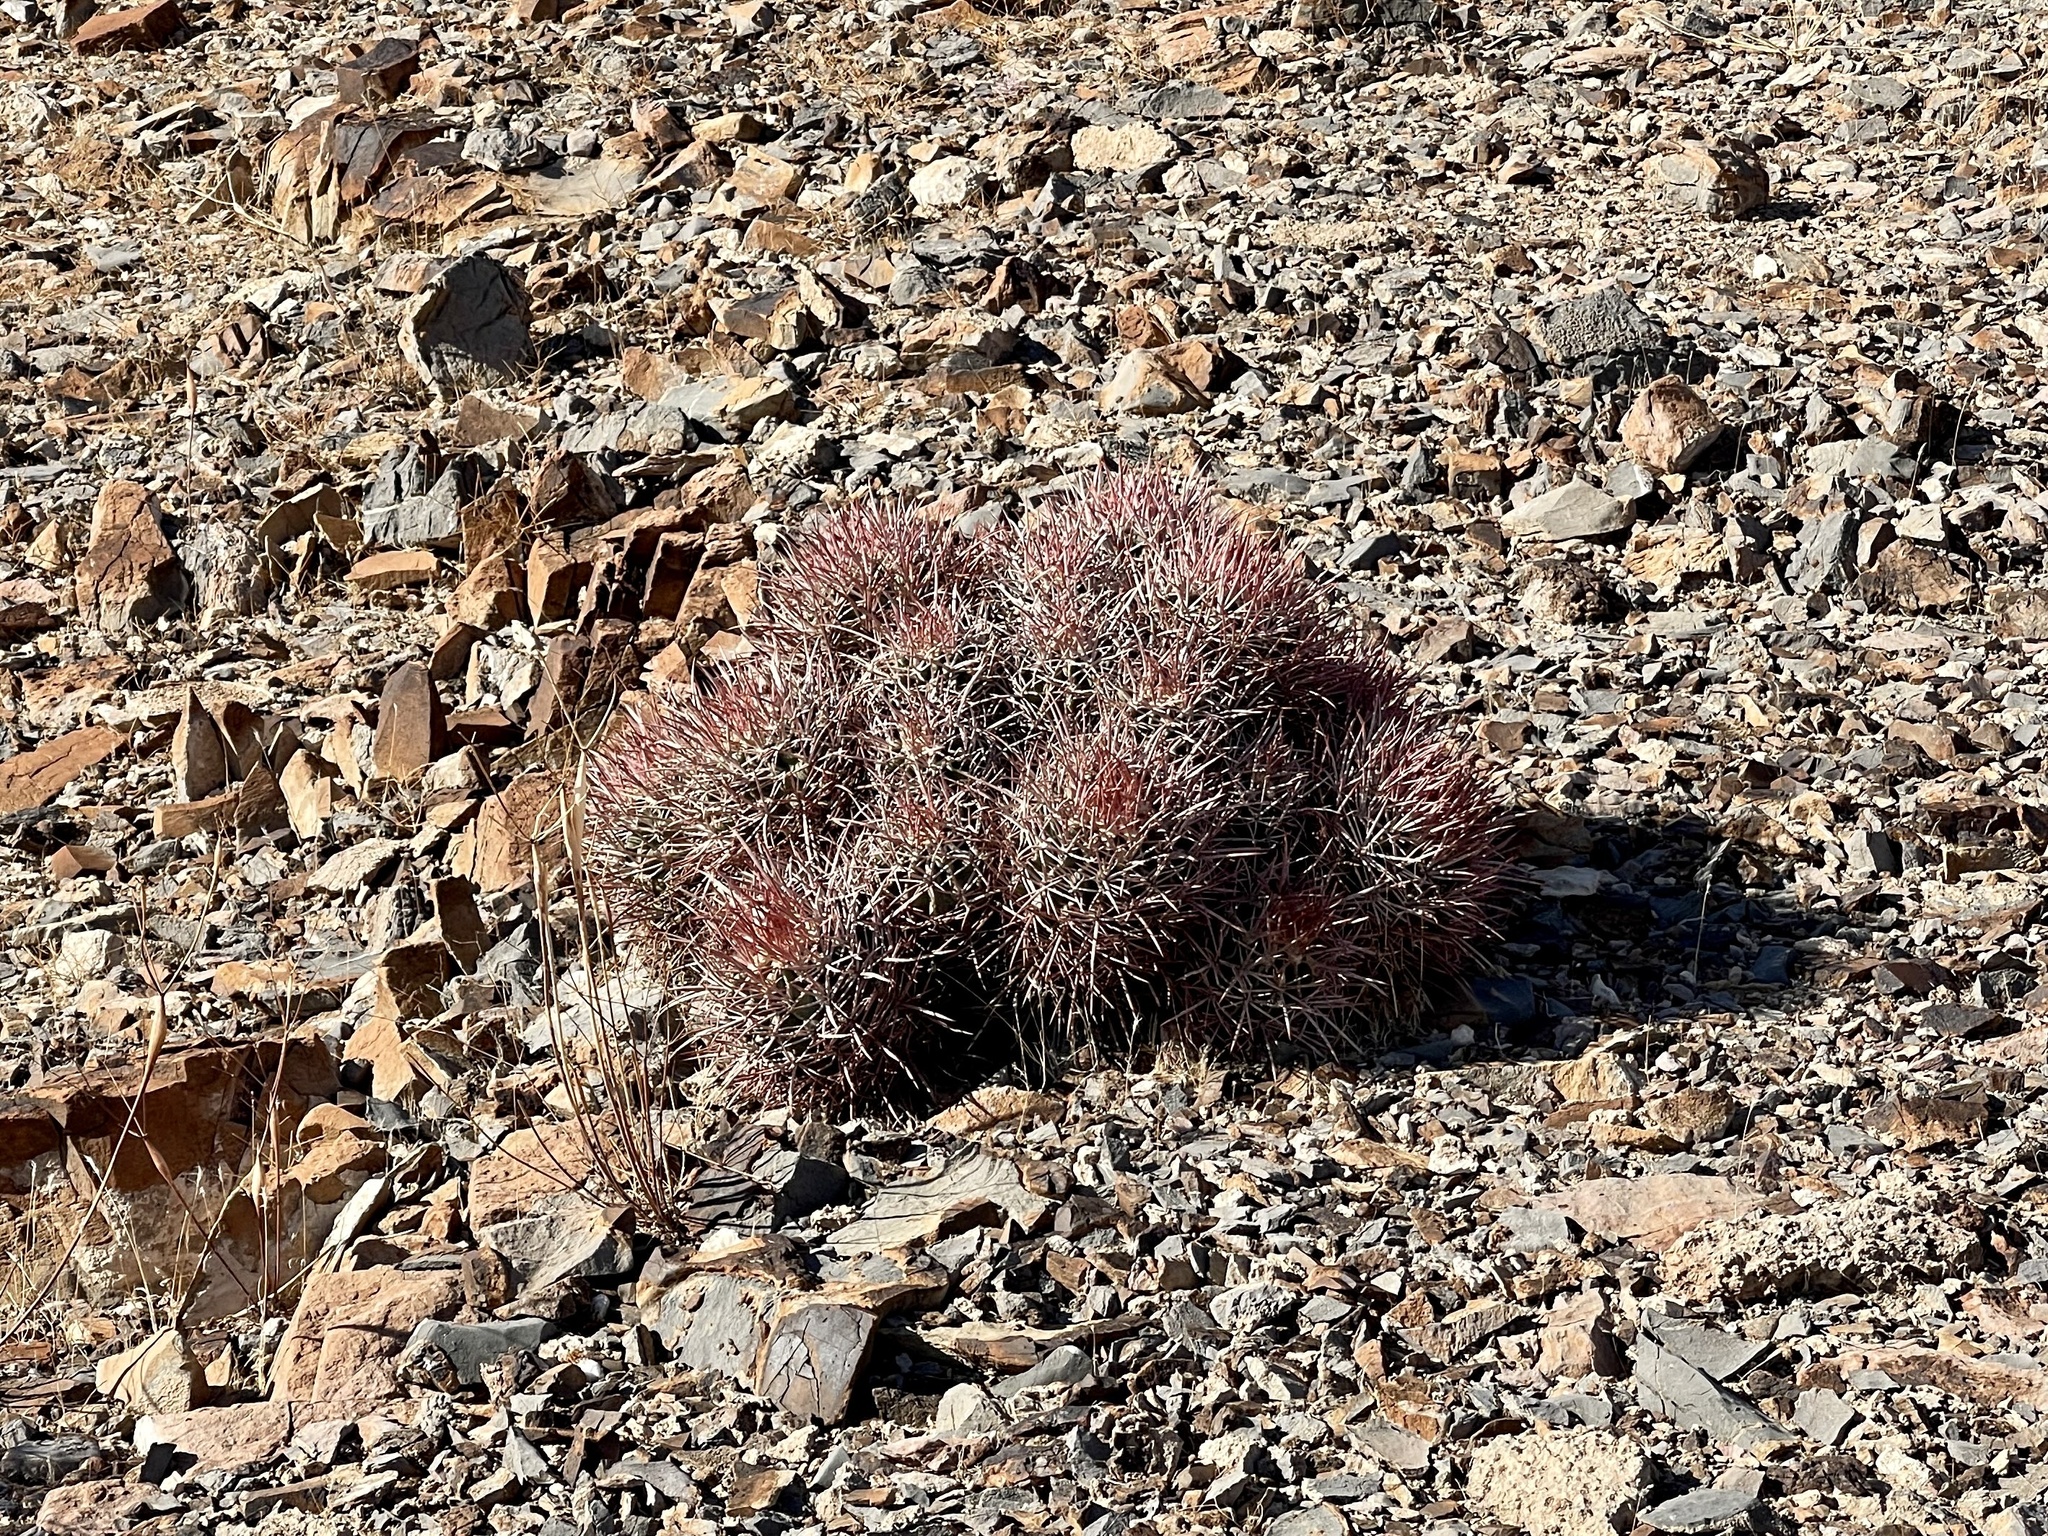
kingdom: Plantae
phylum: Tracheophyta
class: Magnoliopsida
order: Caryophyllales
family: Cactaceae
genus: Echinocactus
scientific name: Echinocactus polycephalus
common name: Cottontop cactus
